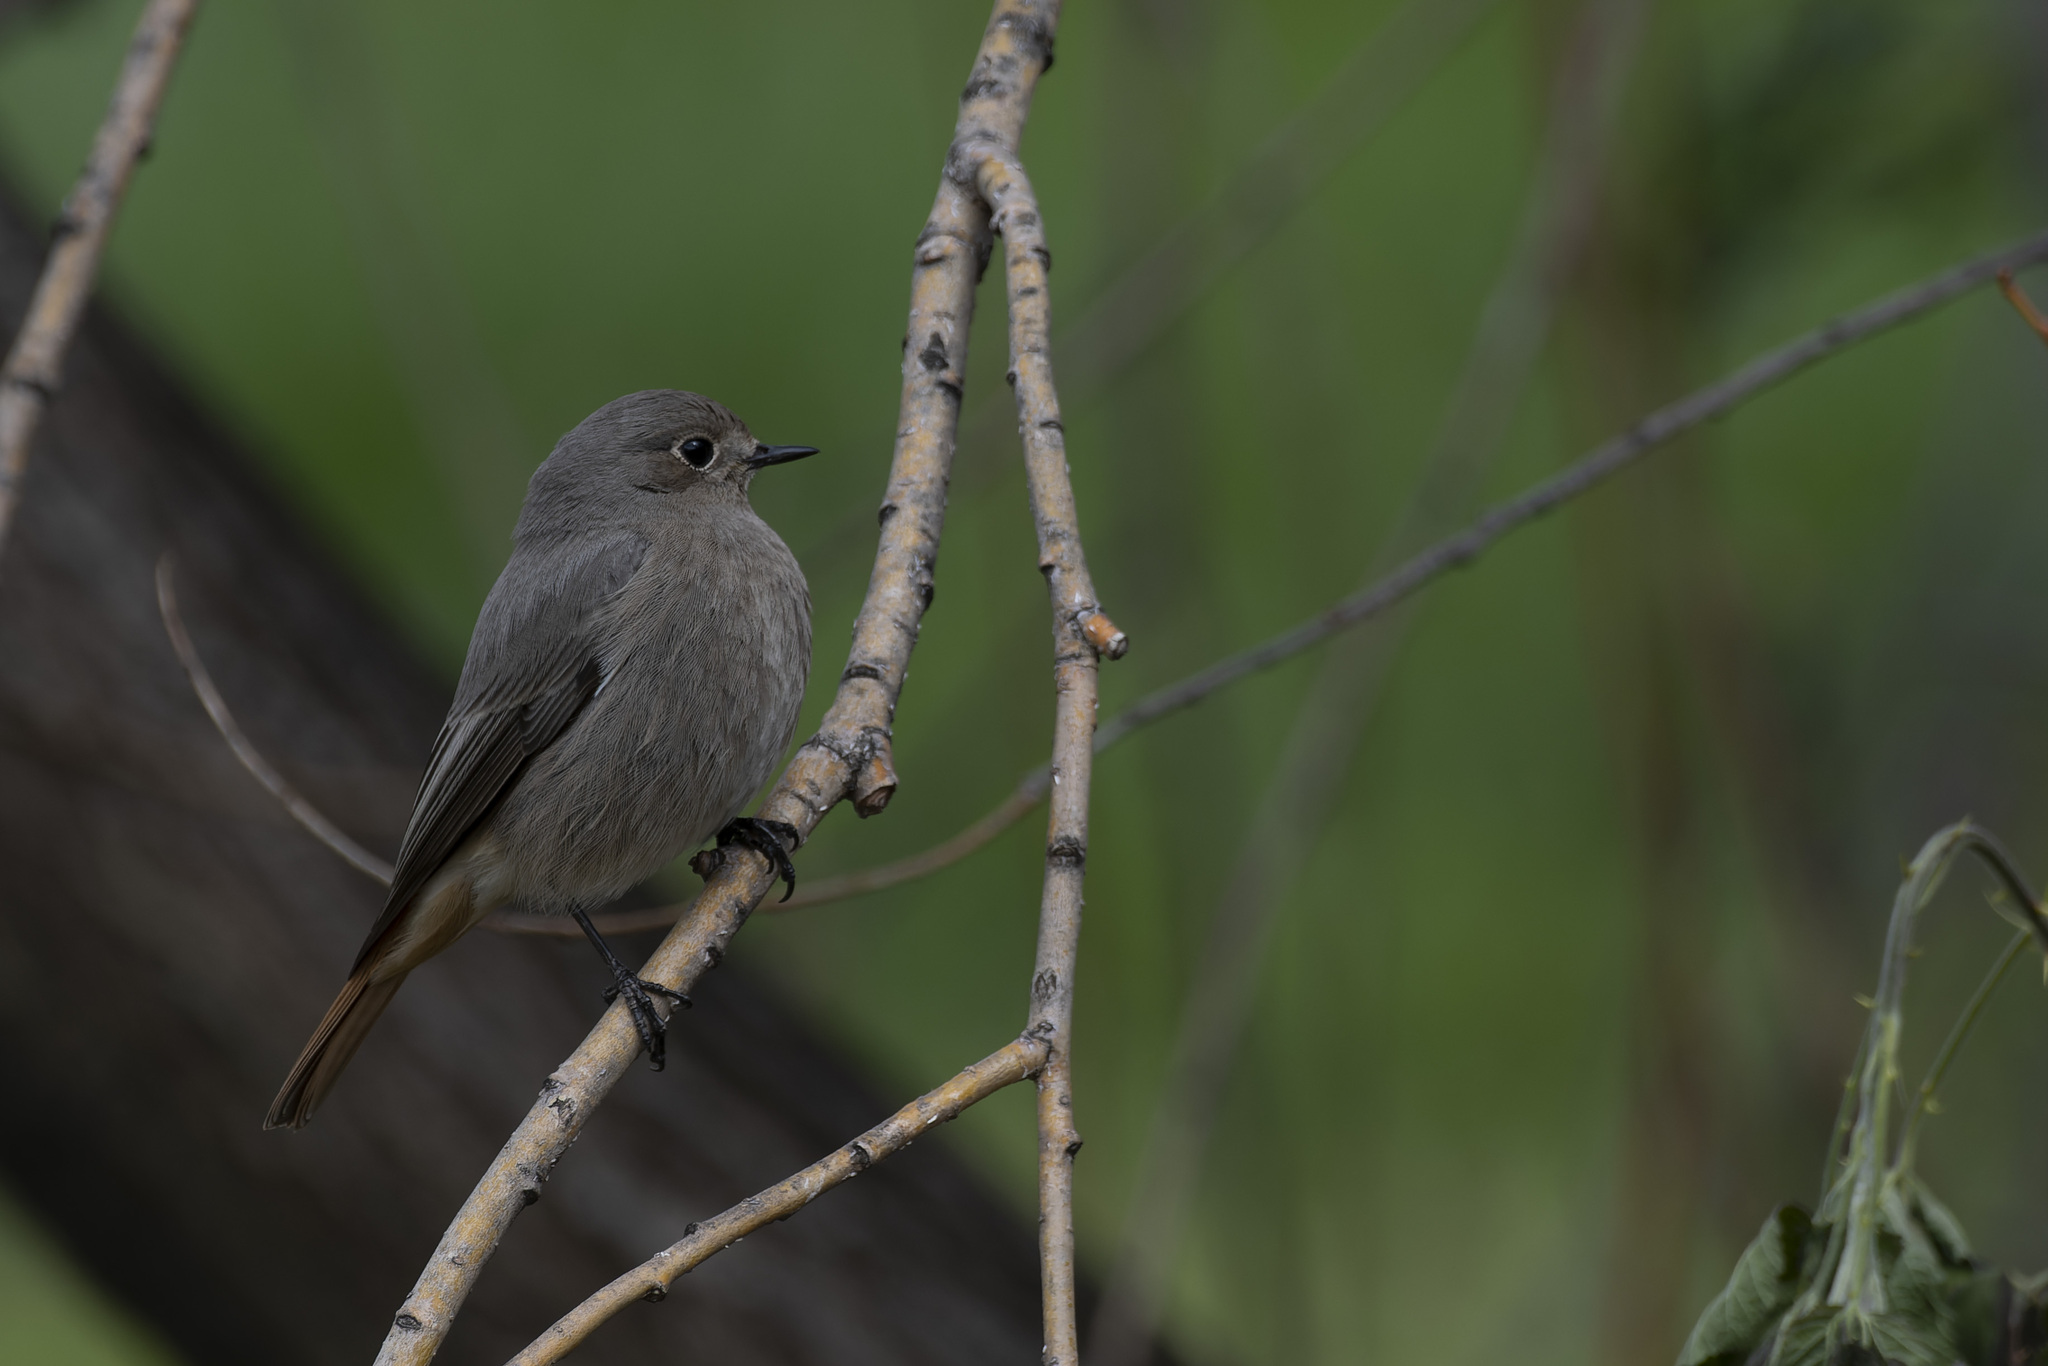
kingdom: Animalia
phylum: Chordata
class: Aves
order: Passeriformes
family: Muscicapidae
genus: Phoenicurus
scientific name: Phoenicurus ochruros
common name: Black redstart
